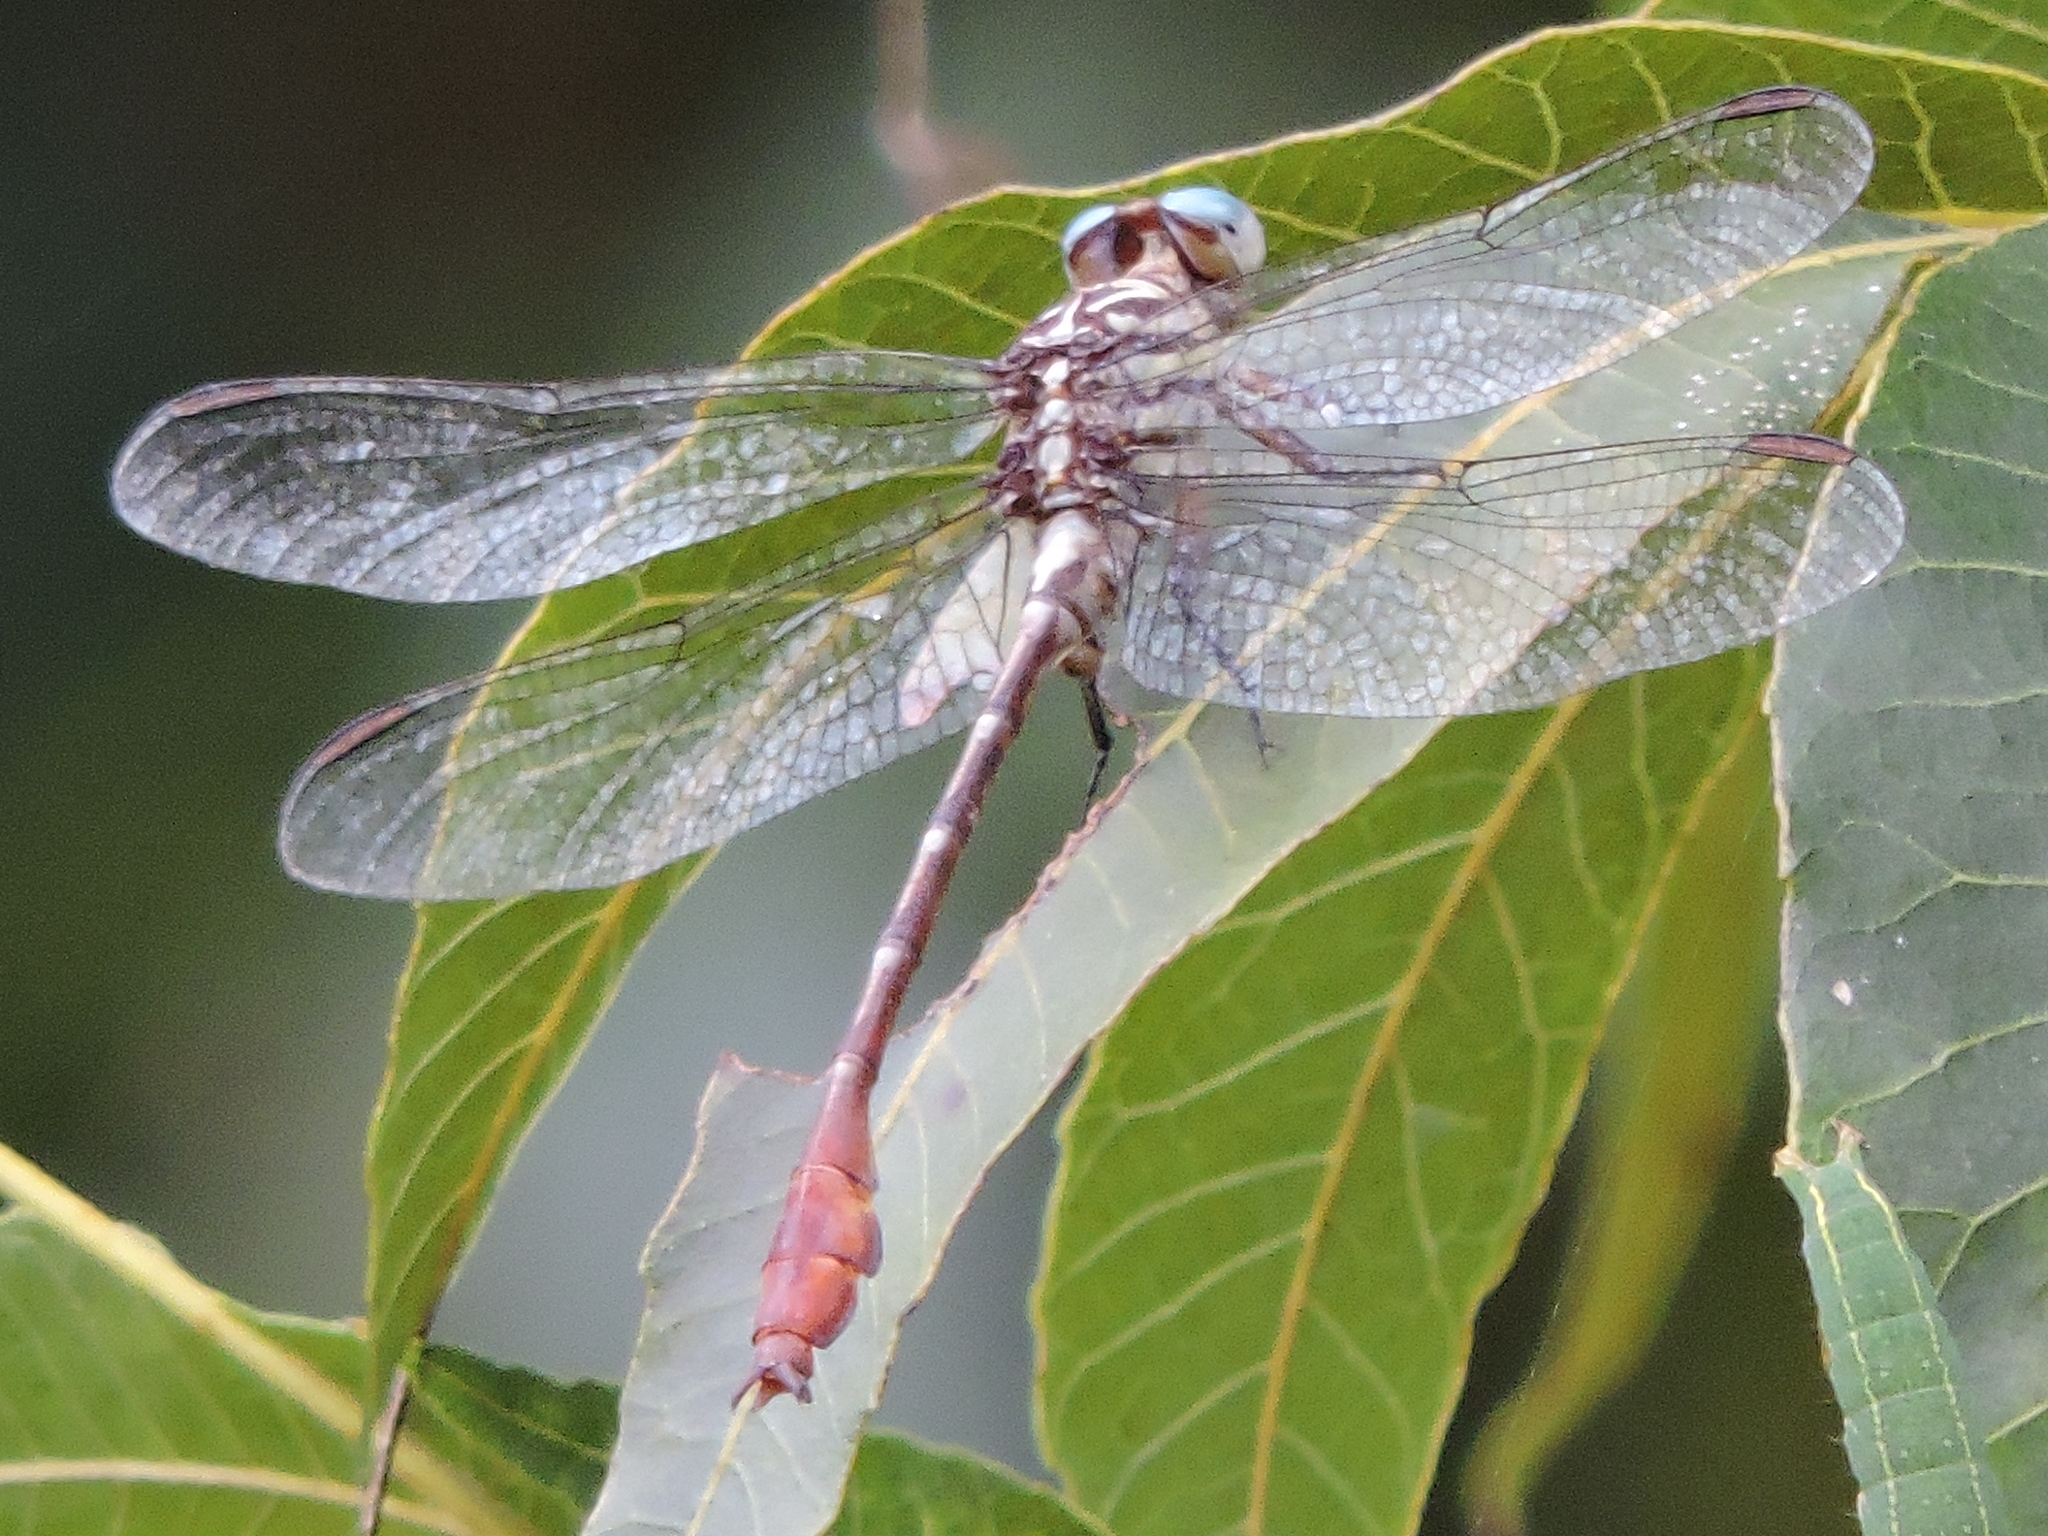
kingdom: Animalia
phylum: Arthropoda
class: Insecta
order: Odonata
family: Gomphidae
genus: Stylurus
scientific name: Stylurus plagiatus
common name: Russet-tipped clubtail
